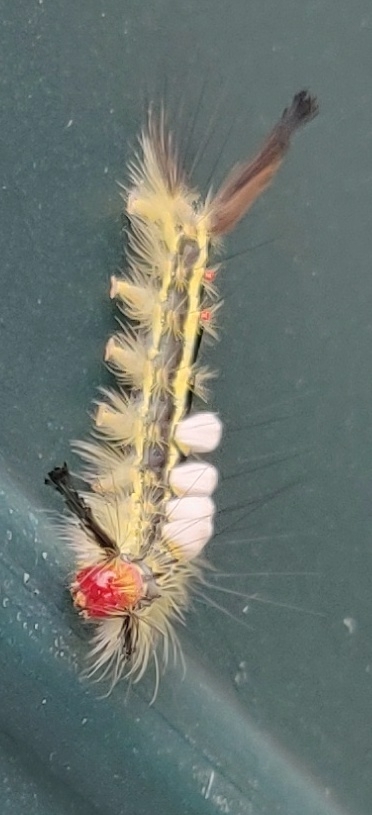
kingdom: Animalia
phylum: Arthropoda
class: Insecta
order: Lepidoptera
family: Erebidae
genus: Orgyia
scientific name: Orgyia leucostigma
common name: White-marked tussock moth
